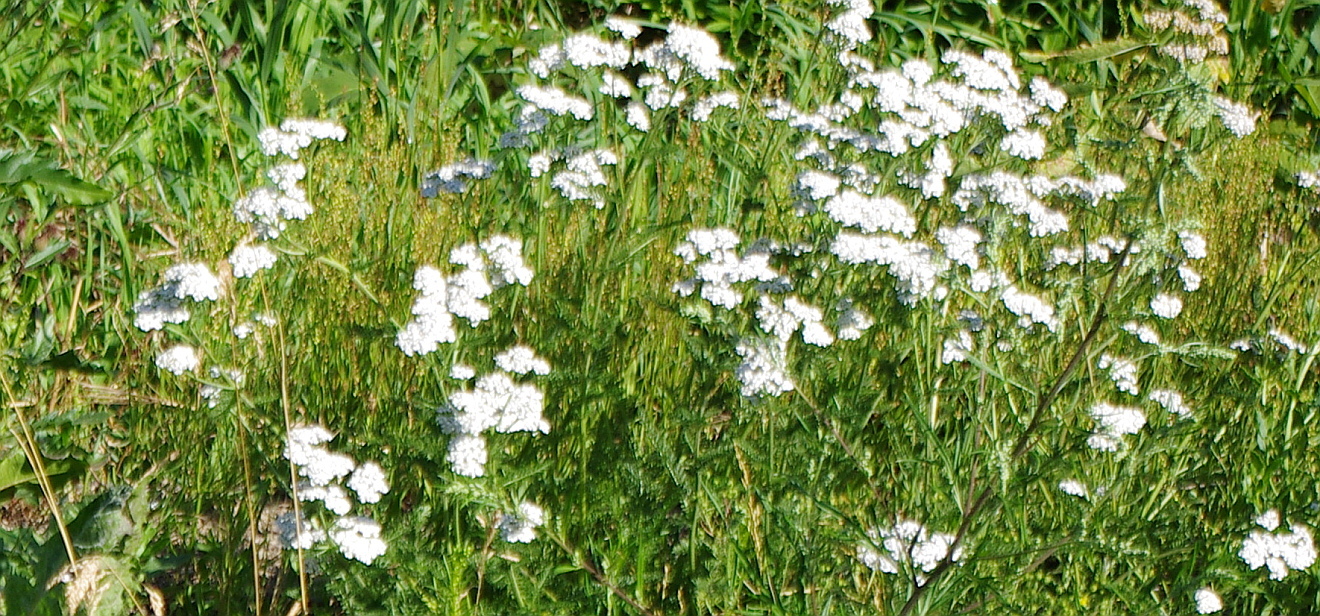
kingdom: Plantae
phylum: Tracheophyta
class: Magnoliopsida
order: Asterales
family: Asteraceae
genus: Achillea
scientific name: Achillea millefolium
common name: Yarrow
